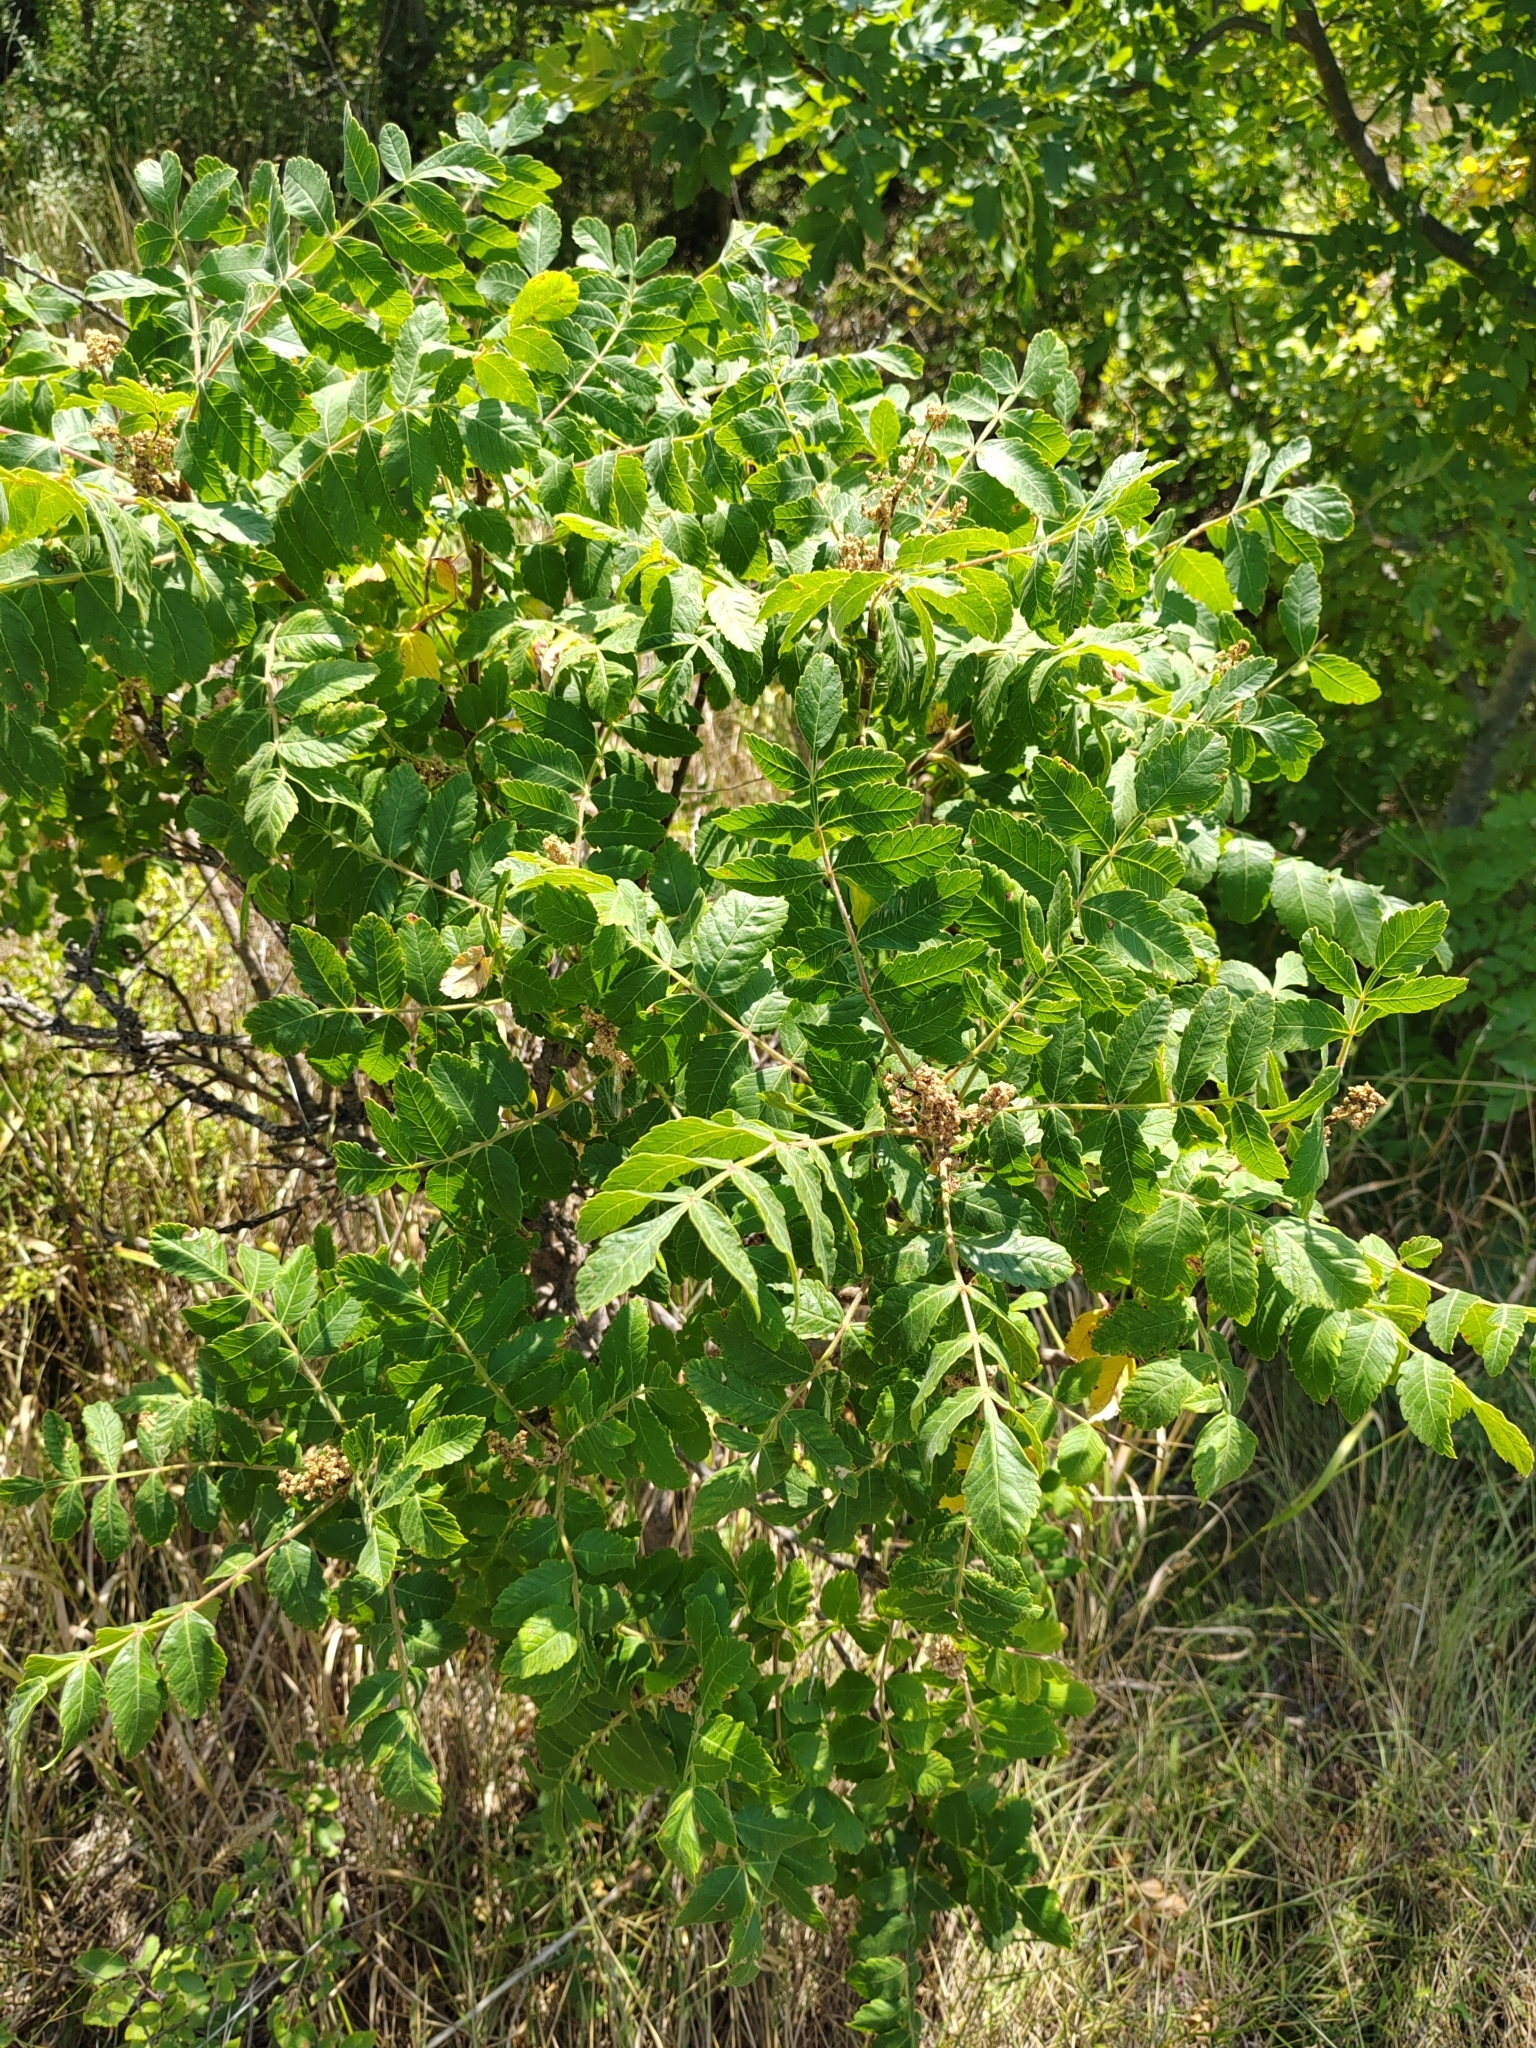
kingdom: Plantae
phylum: Tracheophyta
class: Magnoliopsida
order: Sapindales
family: Anacardiaceae
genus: Rhus
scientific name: Rhus coriaria
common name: Tanner's sumach
